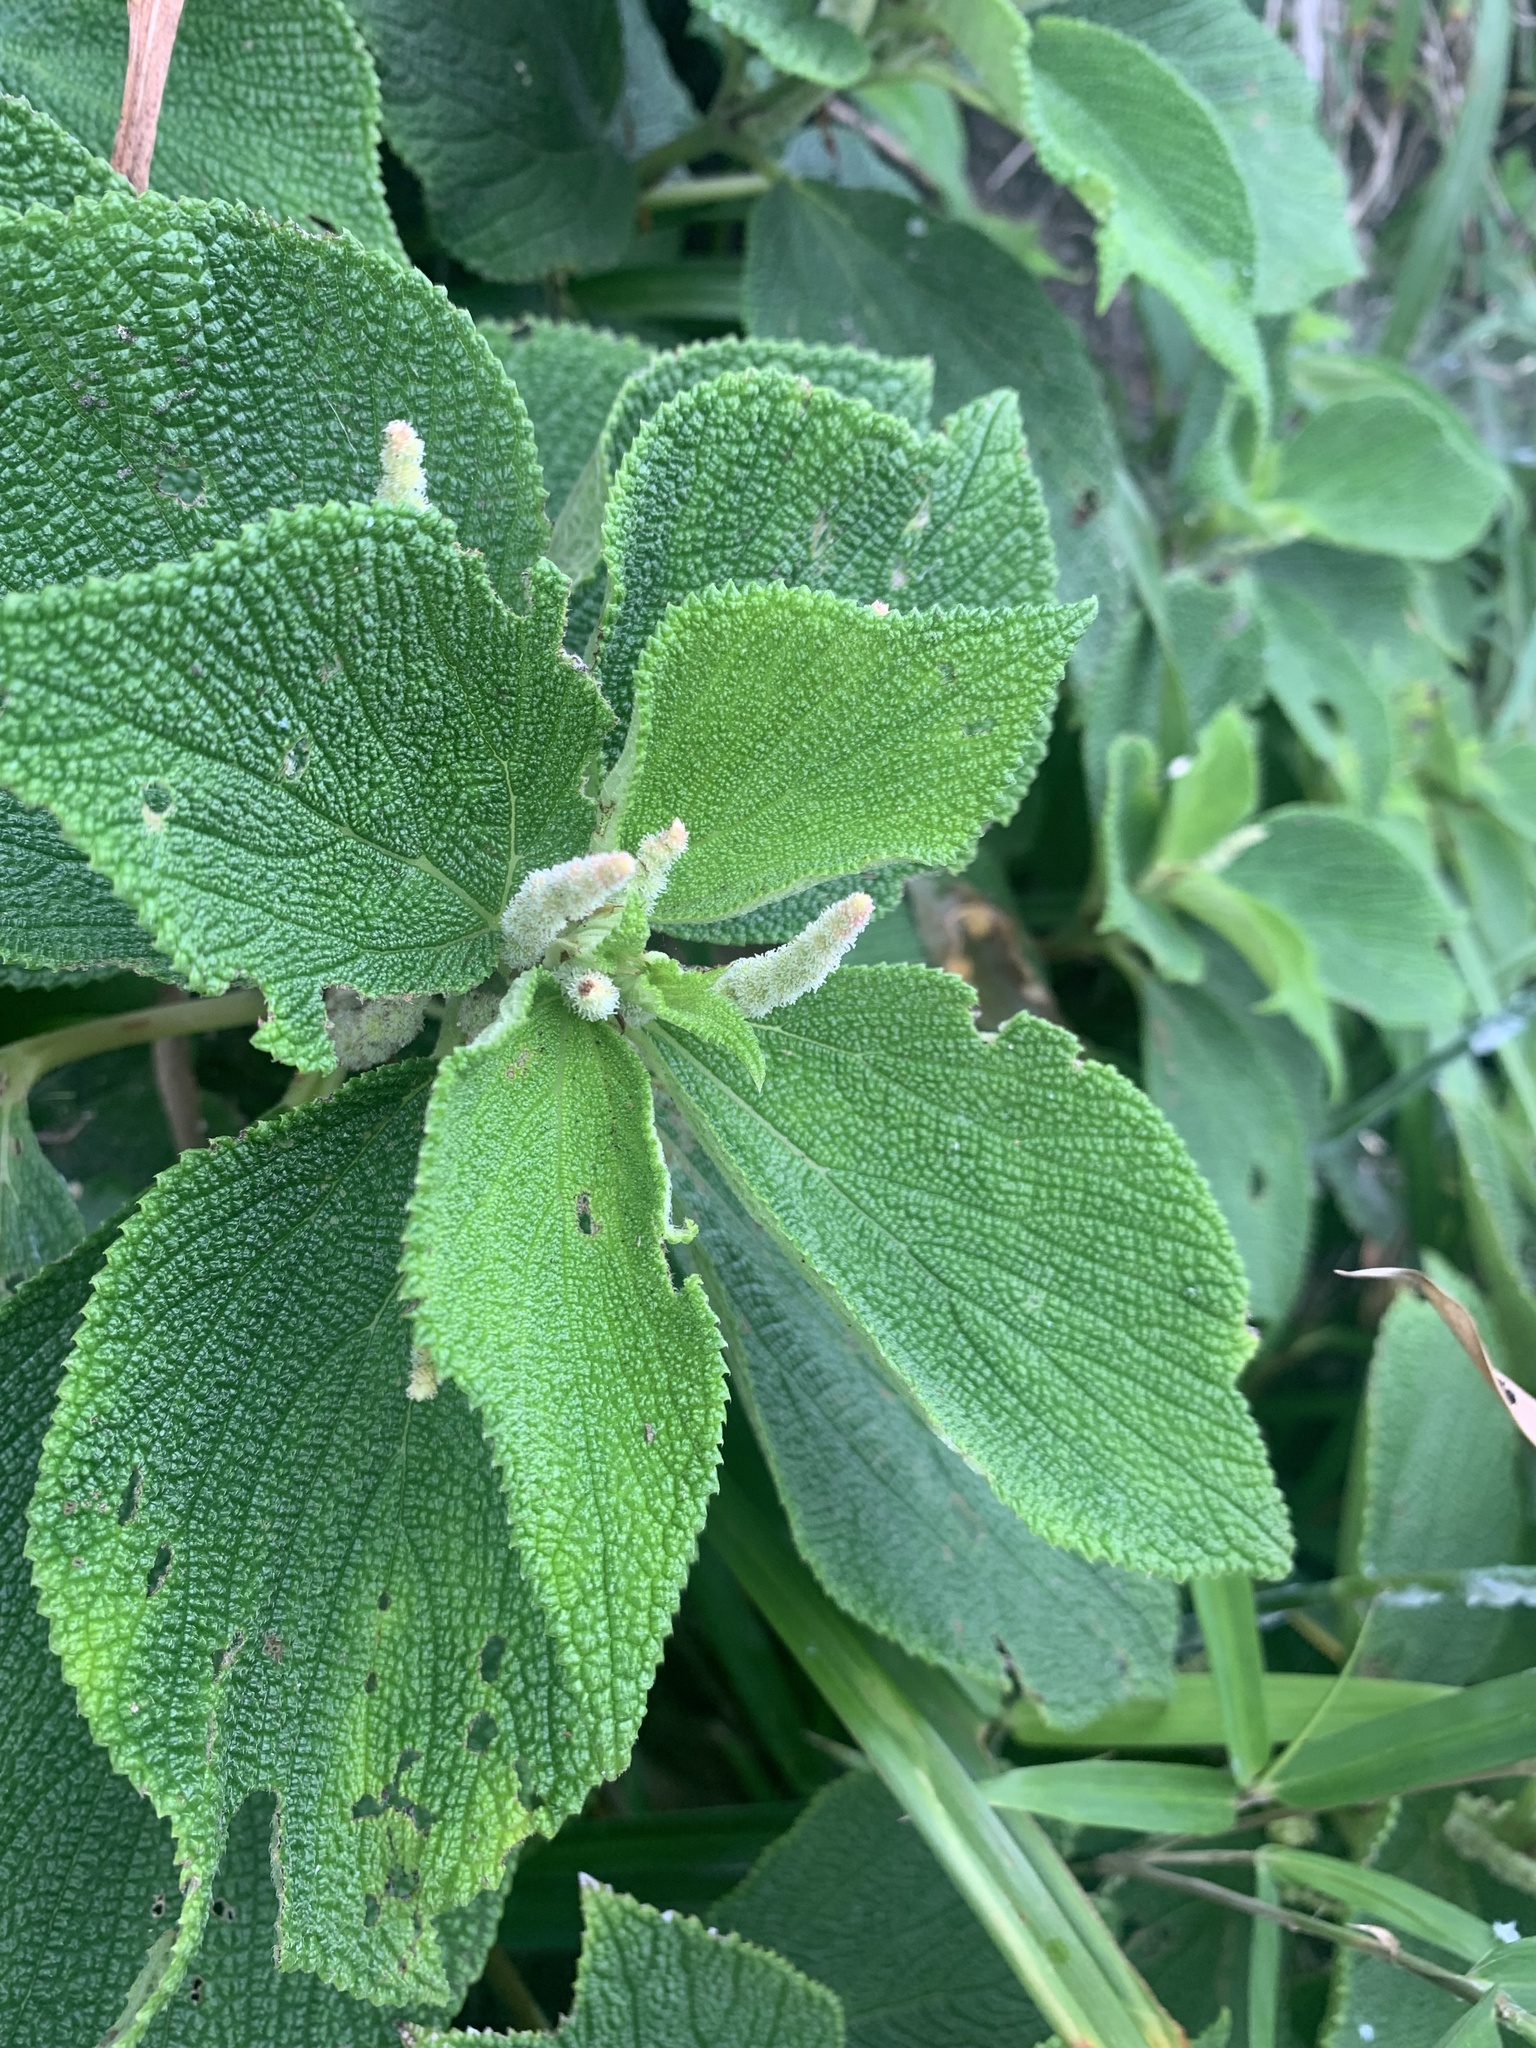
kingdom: Plantae
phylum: Tracheophyta
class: Magnoliopsida
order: Rosales
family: Urticaceae
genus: Boehmeria
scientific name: Boehmeria splitgerbera
